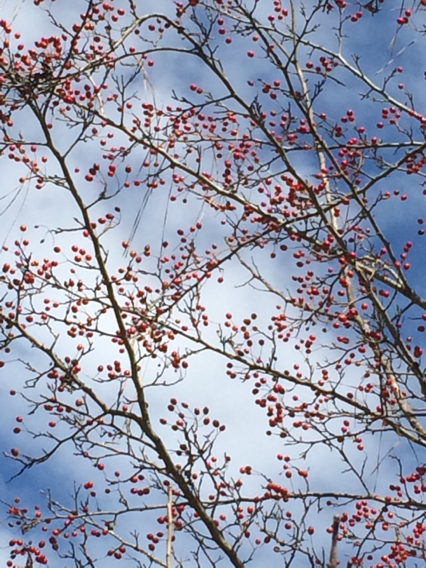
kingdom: Plantae
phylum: Tracheophyta
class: Magnoliopsida
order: Rosales
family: Rosaceae
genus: Crataegus
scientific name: Crataegus marshallii
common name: Parsley-hawthorn
